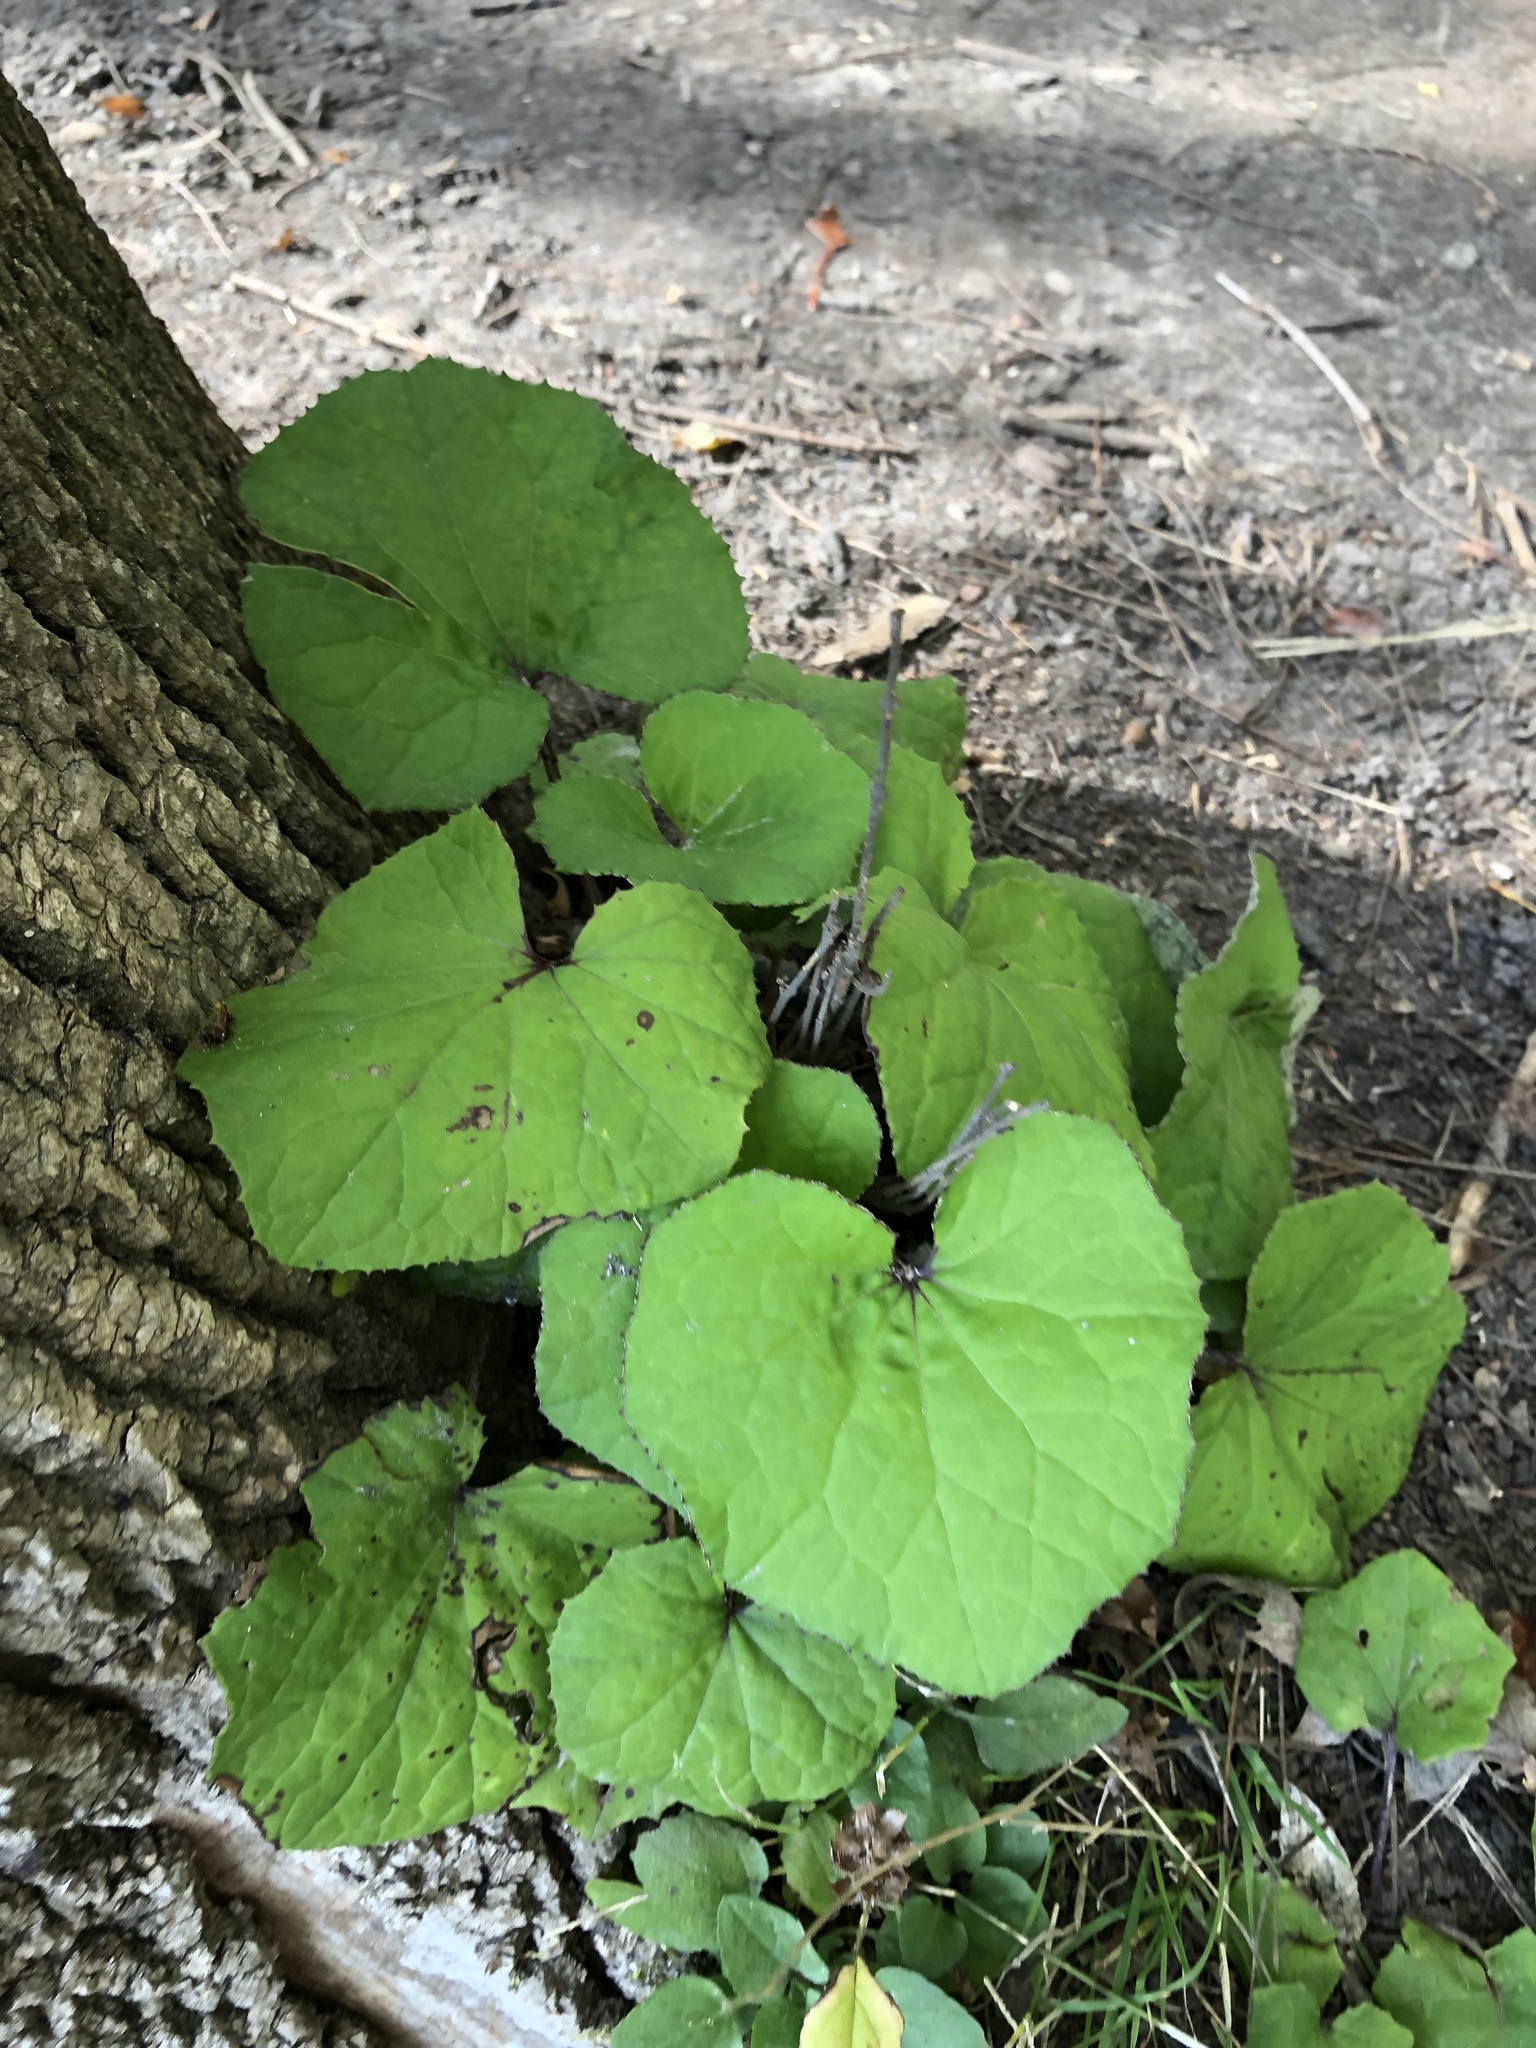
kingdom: Plantae
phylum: Tracheophyta
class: Magnoliopsida
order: Asterales
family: Asteraceae
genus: Tussilago
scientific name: Tussilago farfara
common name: Coltsfoot
